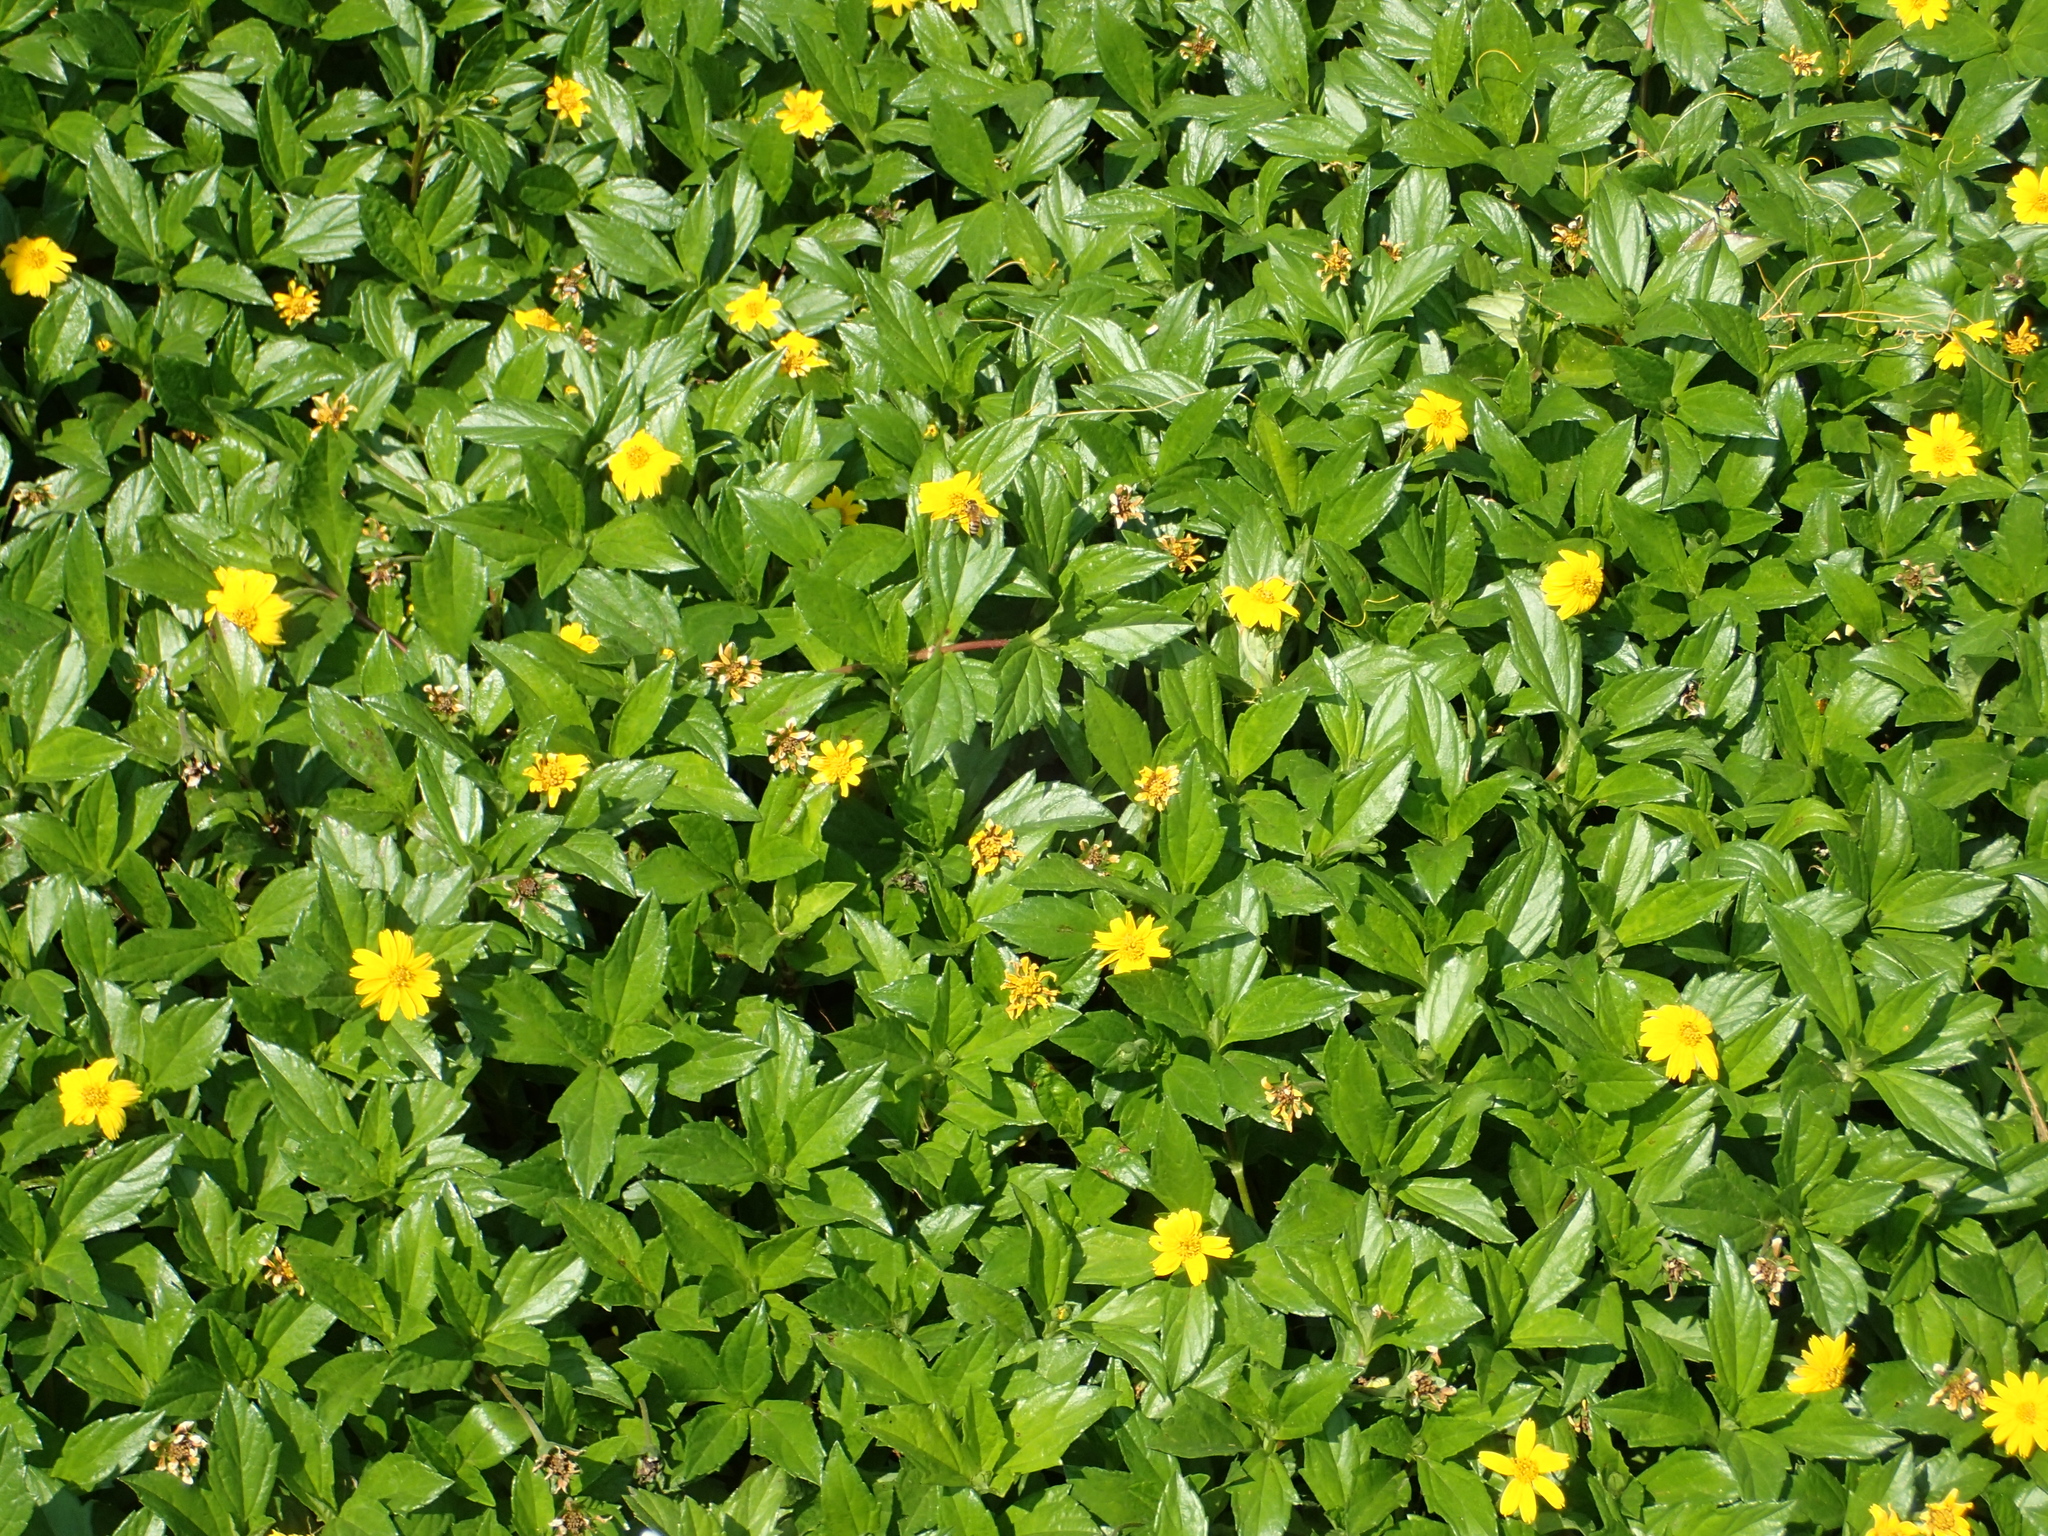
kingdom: Plantae
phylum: Tracheophyta
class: Magnoliopsida
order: Asterales
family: Asteraceae
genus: Sphagneticola
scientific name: Sphagneticola trilobata
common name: Bay biscayne creeping-oxeye
